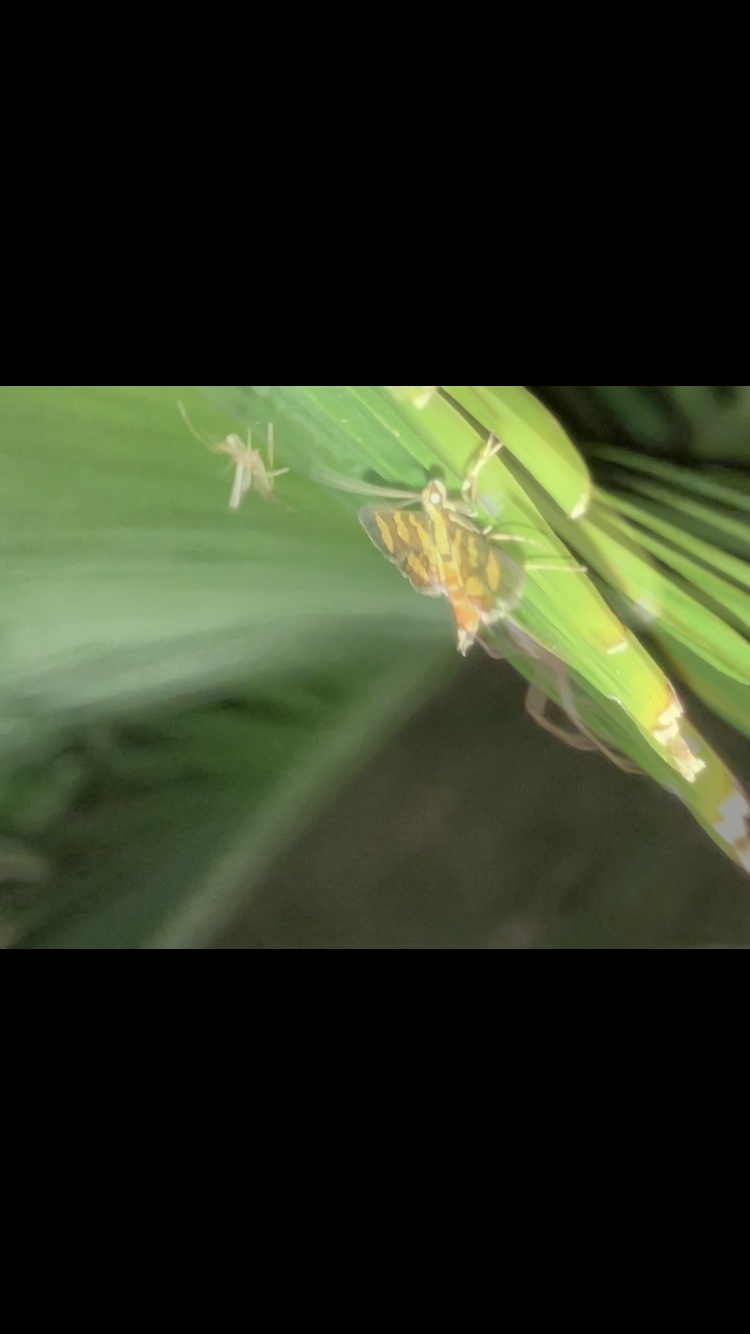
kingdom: Animalia
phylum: Arthropoda
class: Insecta
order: Lepidoptera
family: Crambidae
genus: Syngamia
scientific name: Syngamia florella
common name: Orange-spotted flower moth
